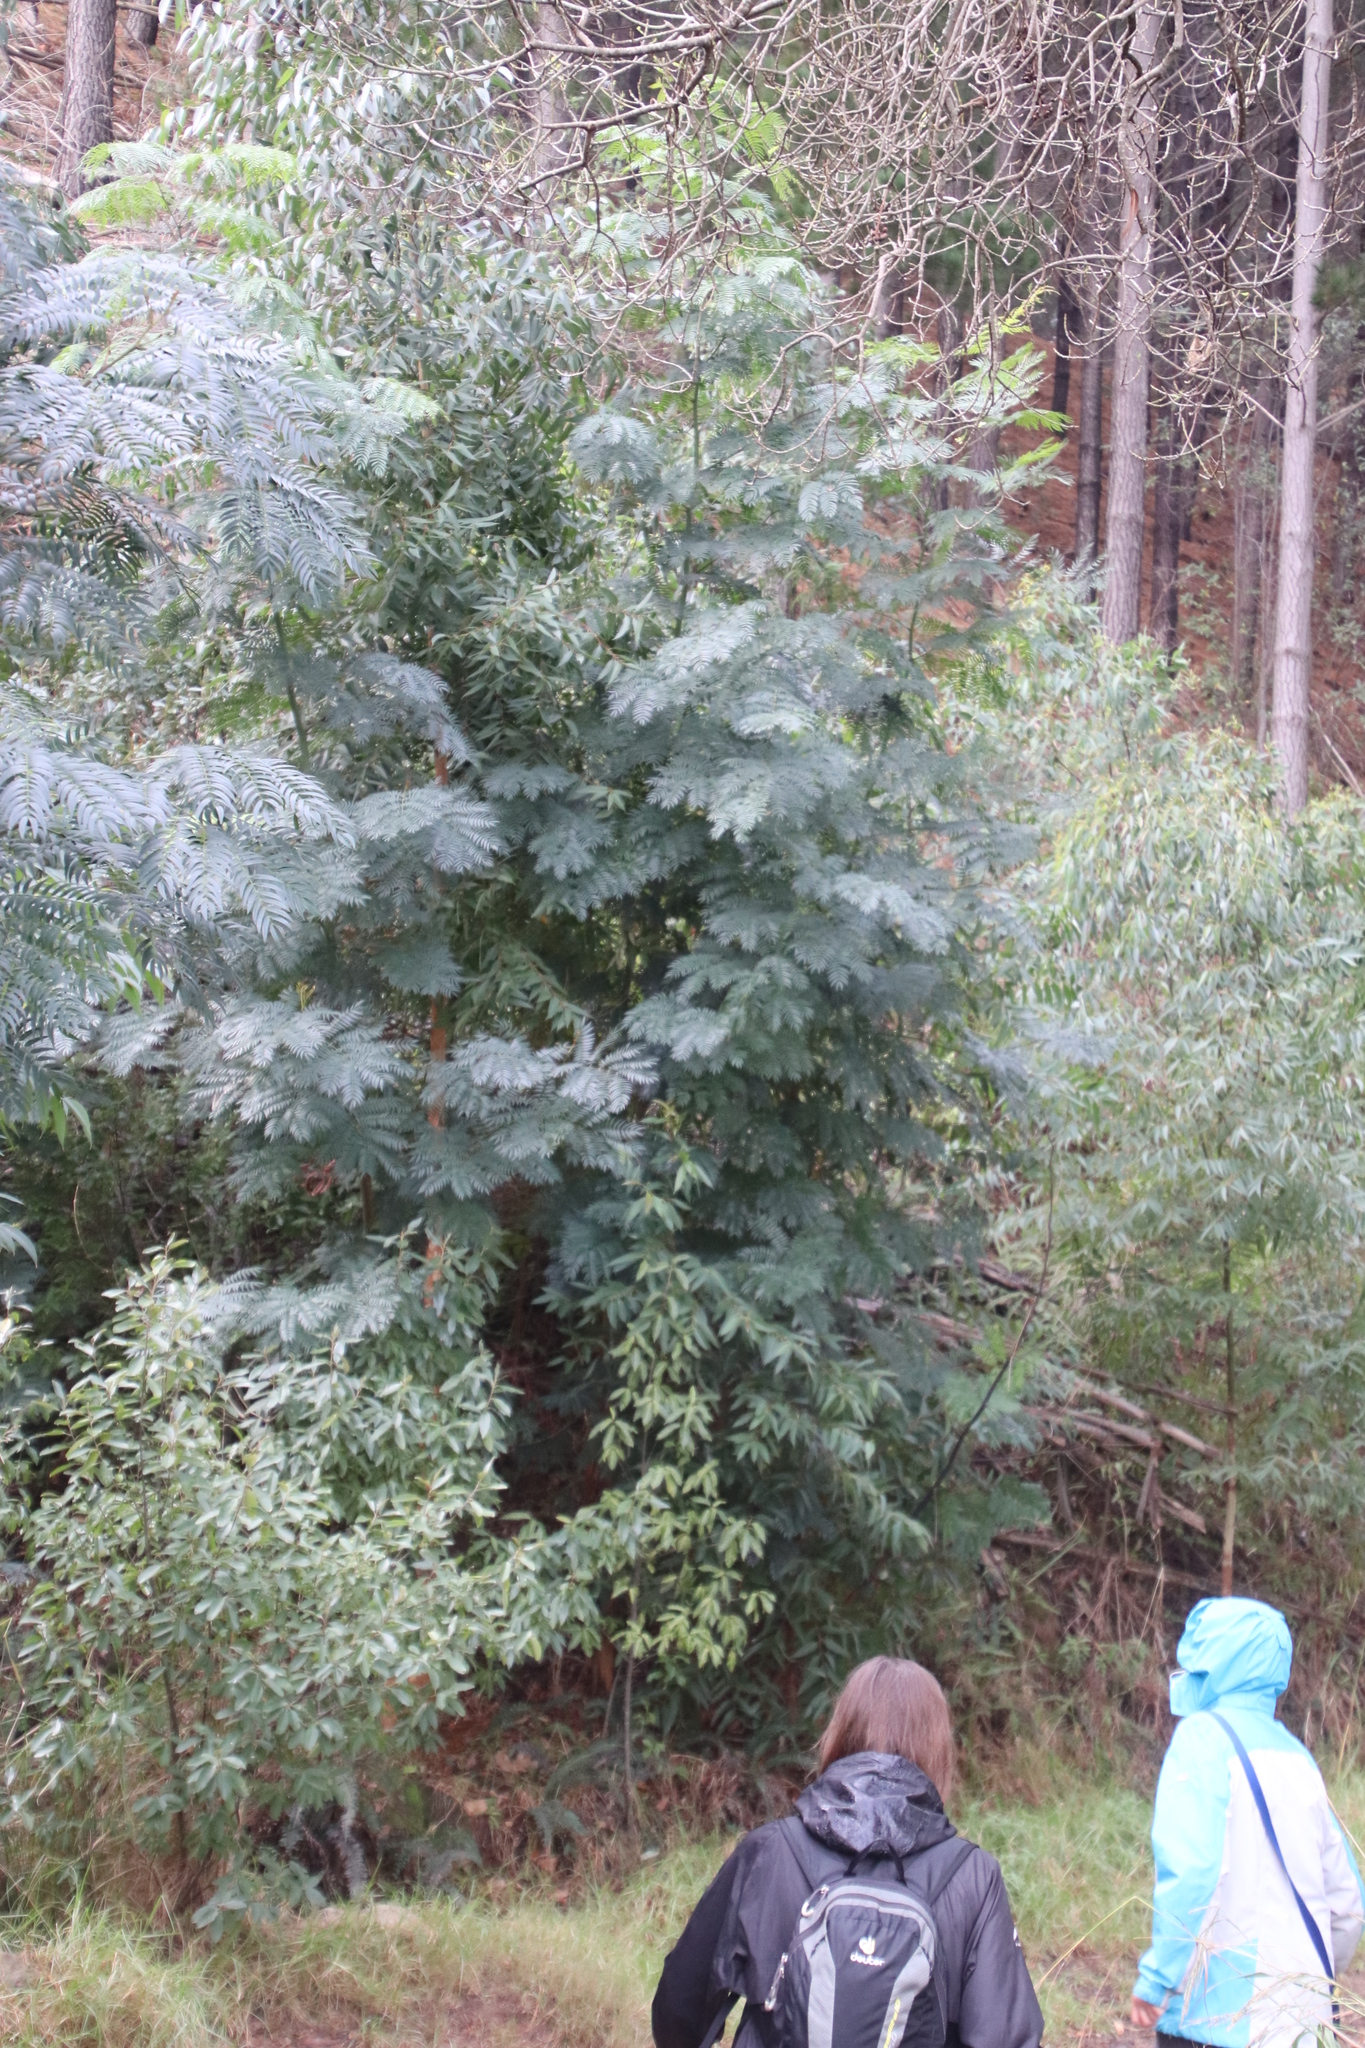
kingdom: Plantae
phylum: Tracheophyta
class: Magnoliopsida
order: Fabales
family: Fabaceae
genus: Acacia
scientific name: Acacia elata
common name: Cedar wattle
